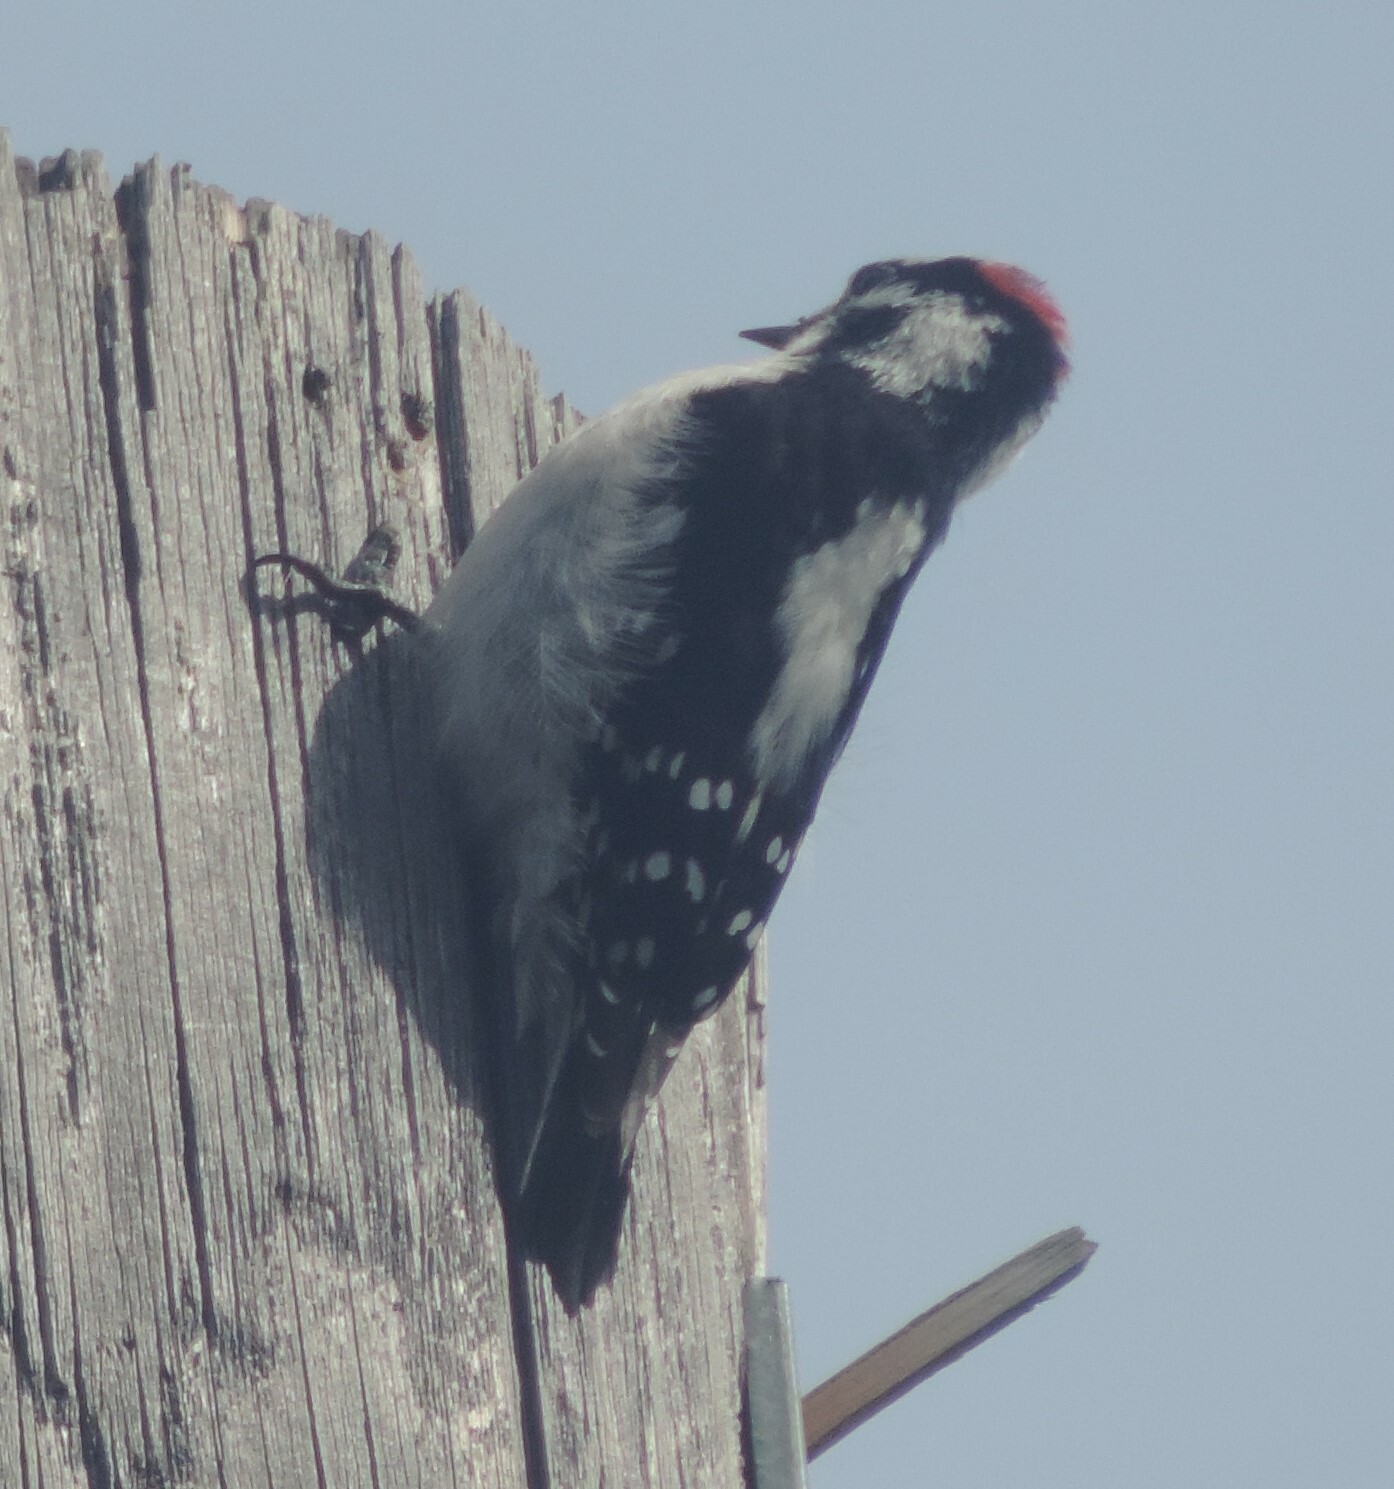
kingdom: Animalia
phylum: Chordata
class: Aves
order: Piciformes
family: Picidae
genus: Leuconotopicus
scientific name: Leuconotopicus villosus
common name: Hairy woodpecker
